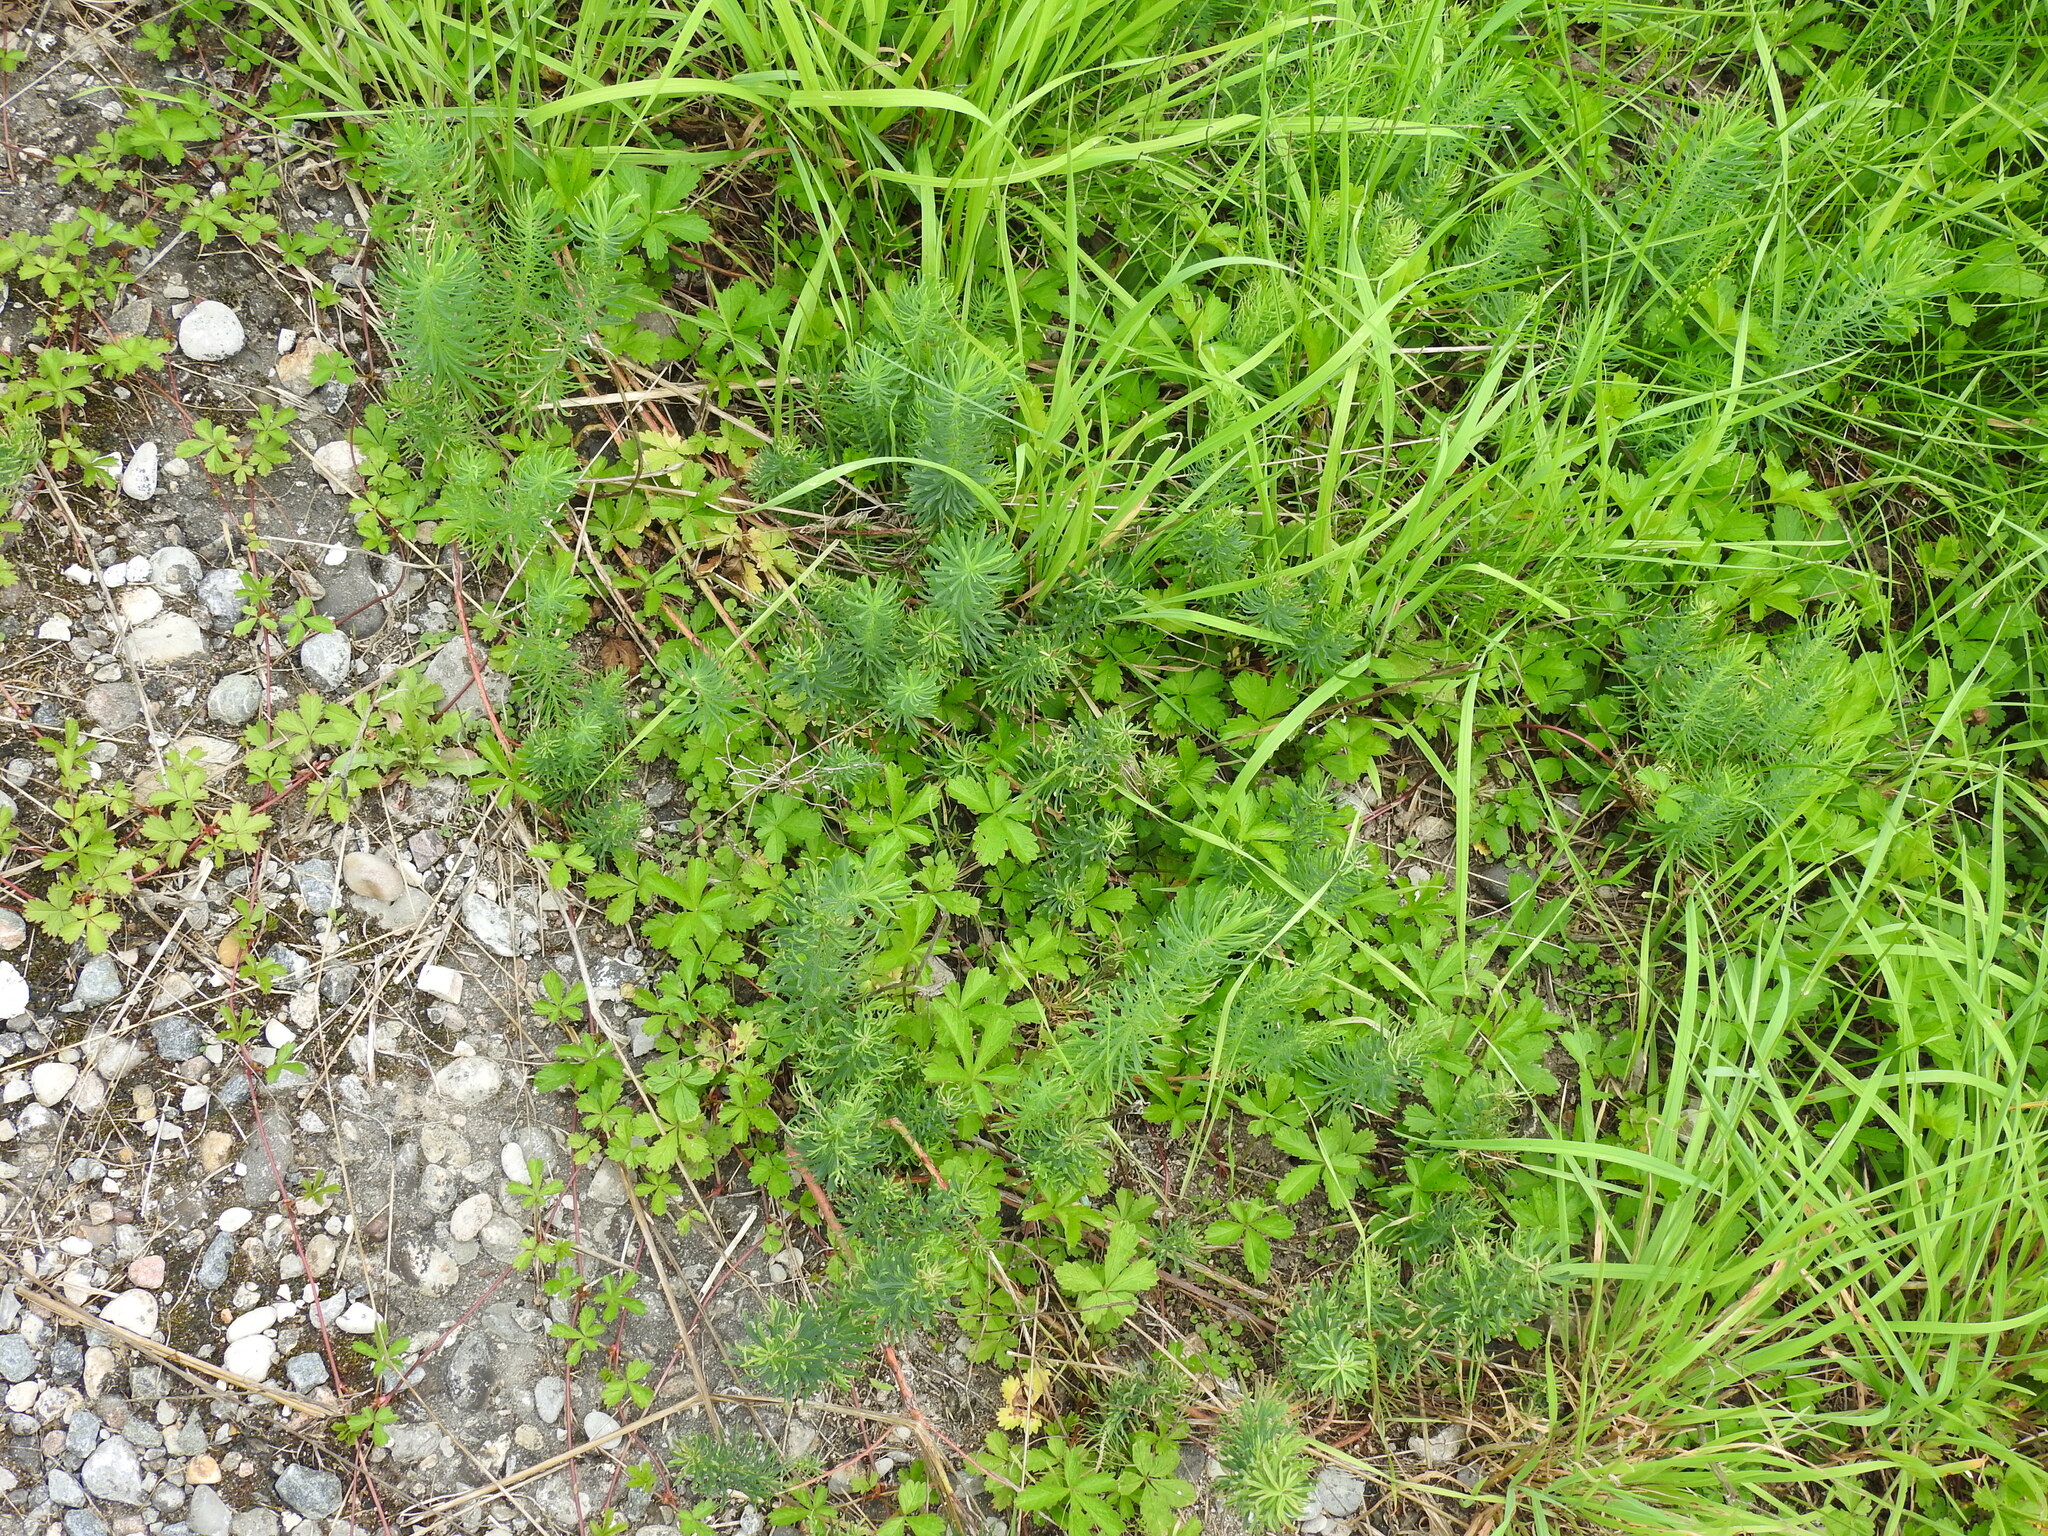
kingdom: Plantae
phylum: Tracheophyta
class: Magnoliopsida
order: Malpighiales
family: Euphorbiaceae
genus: Euphorbia
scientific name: Euphorbia cyparissias
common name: Cypress spurge
